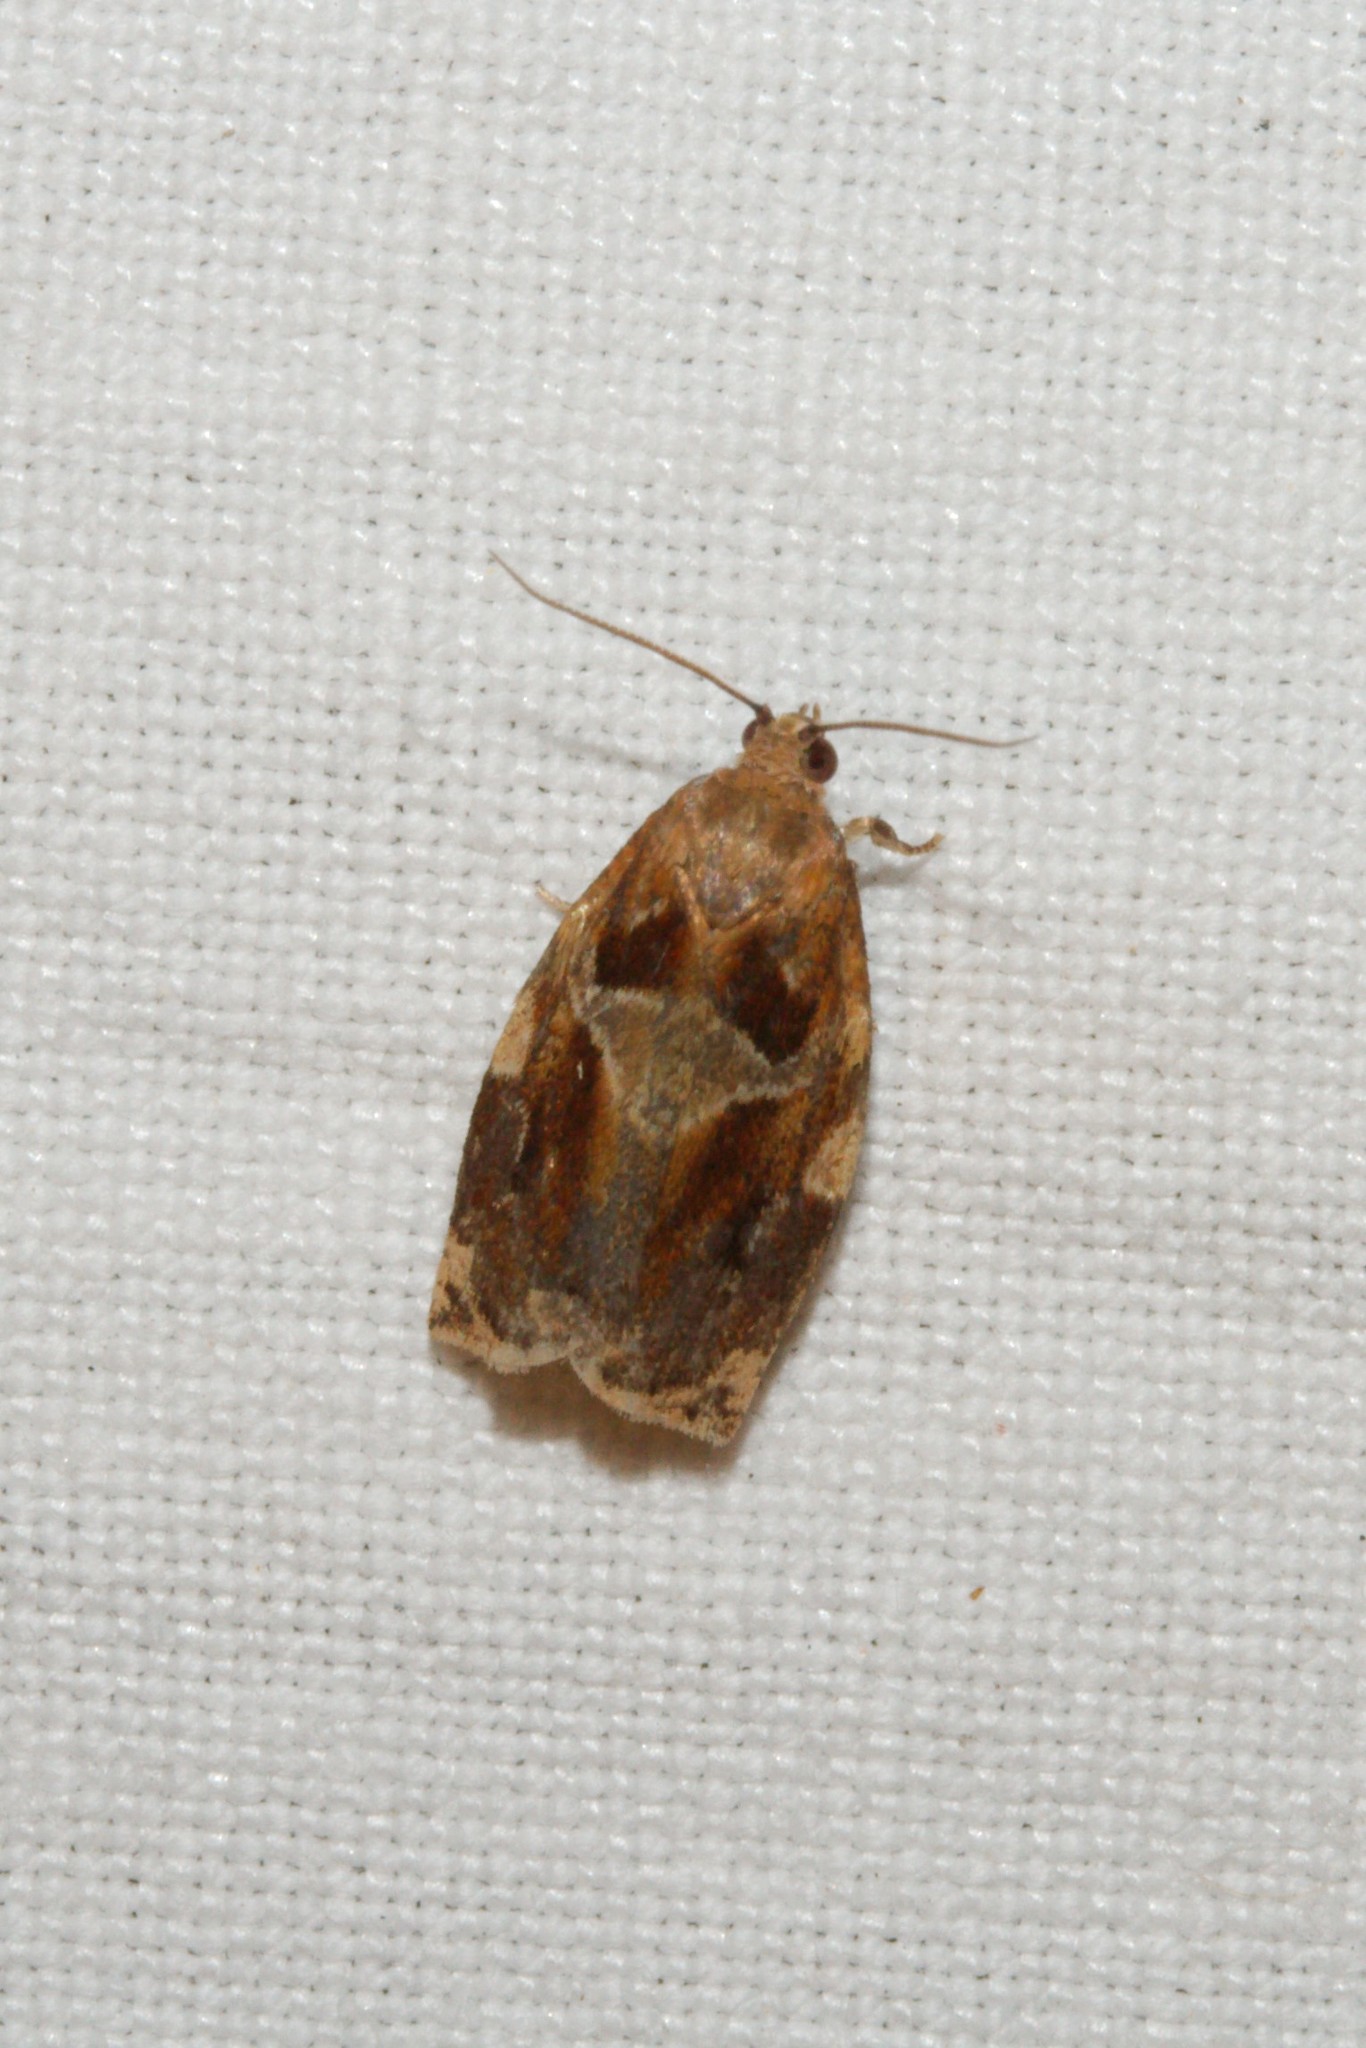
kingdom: Animalia
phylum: Arthropoda
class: Insecta
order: Lepidoptera
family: Tortricidae
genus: Archips
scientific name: Archips xylosteana
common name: Variegated golden tortrix
